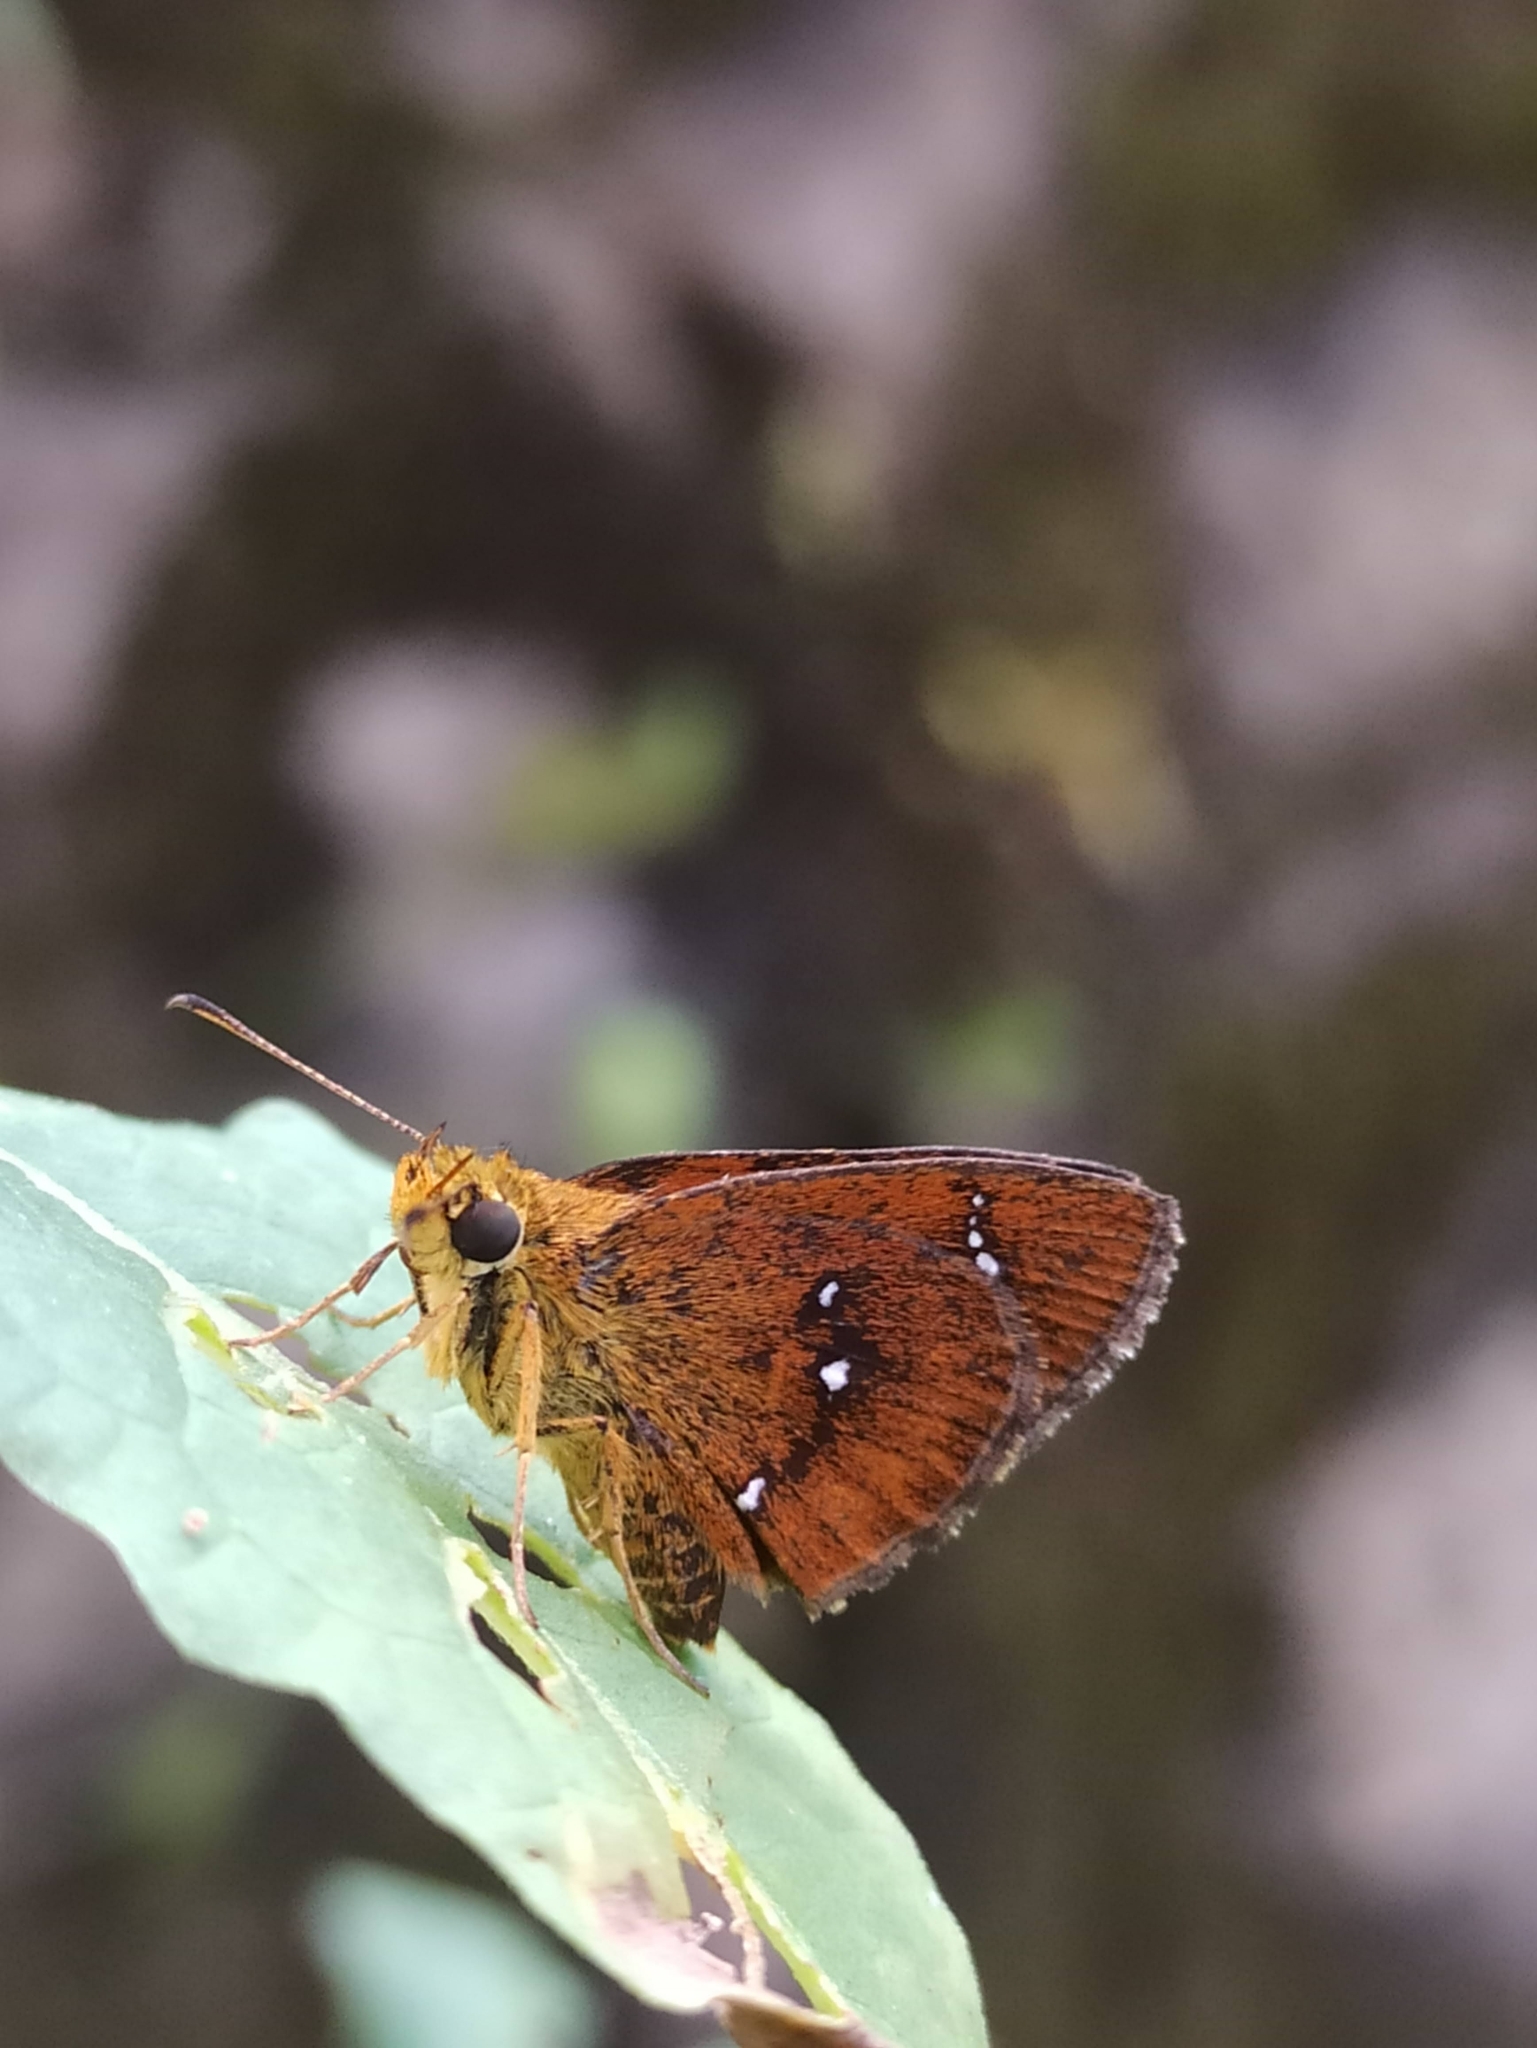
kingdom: Animalia
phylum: Arthropoda
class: Insecta
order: Lepidoptera
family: Hesperiidae
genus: Iambrix
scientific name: Iambrix salsala
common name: Chestnut bob
